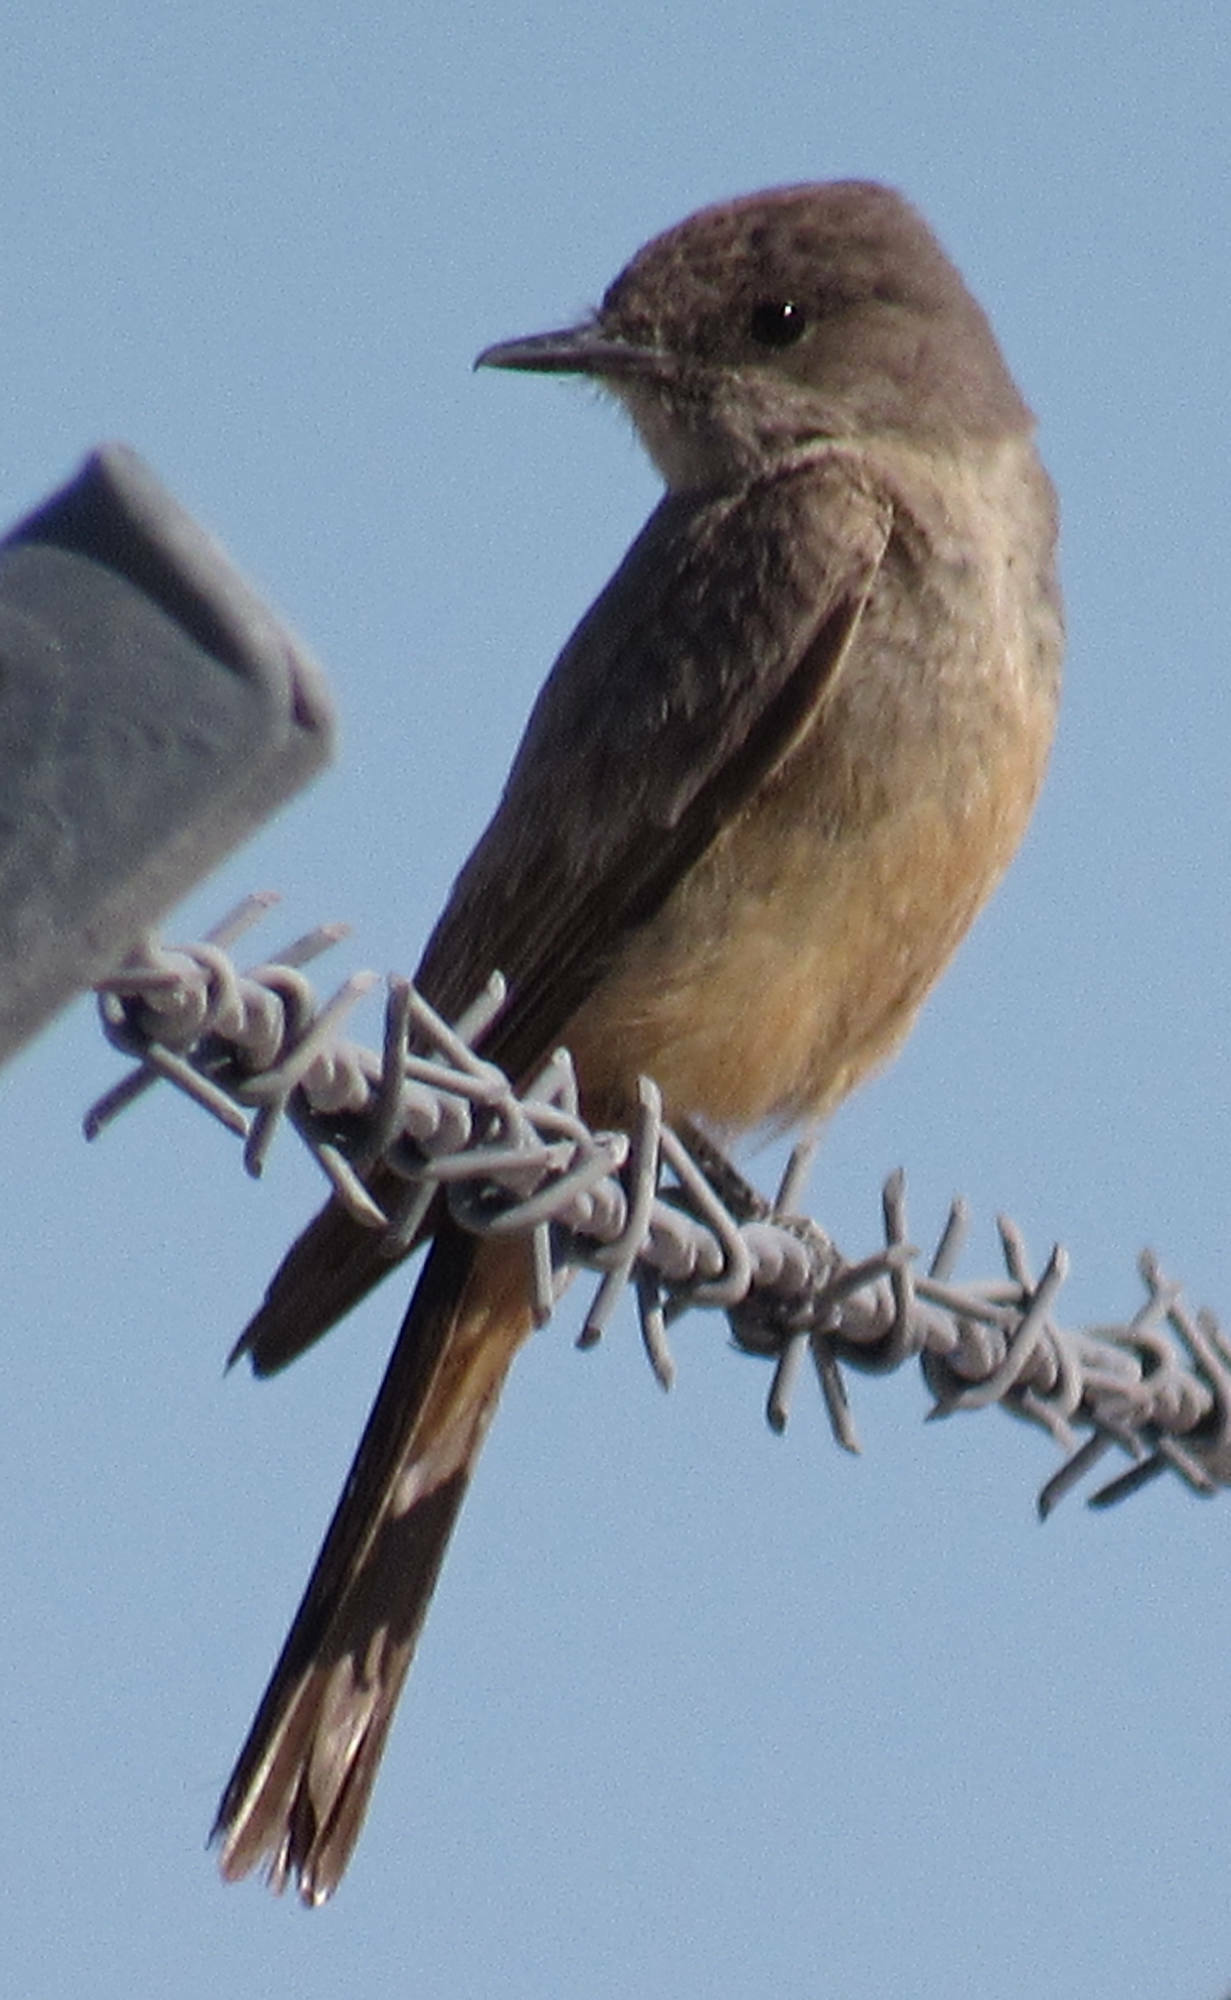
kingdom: Animalia
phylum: Chordata
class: Aves
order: Passeriformes
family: Tyrannidae
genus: Sayornis
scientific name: Sayornis saya
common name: Say's phoebe
